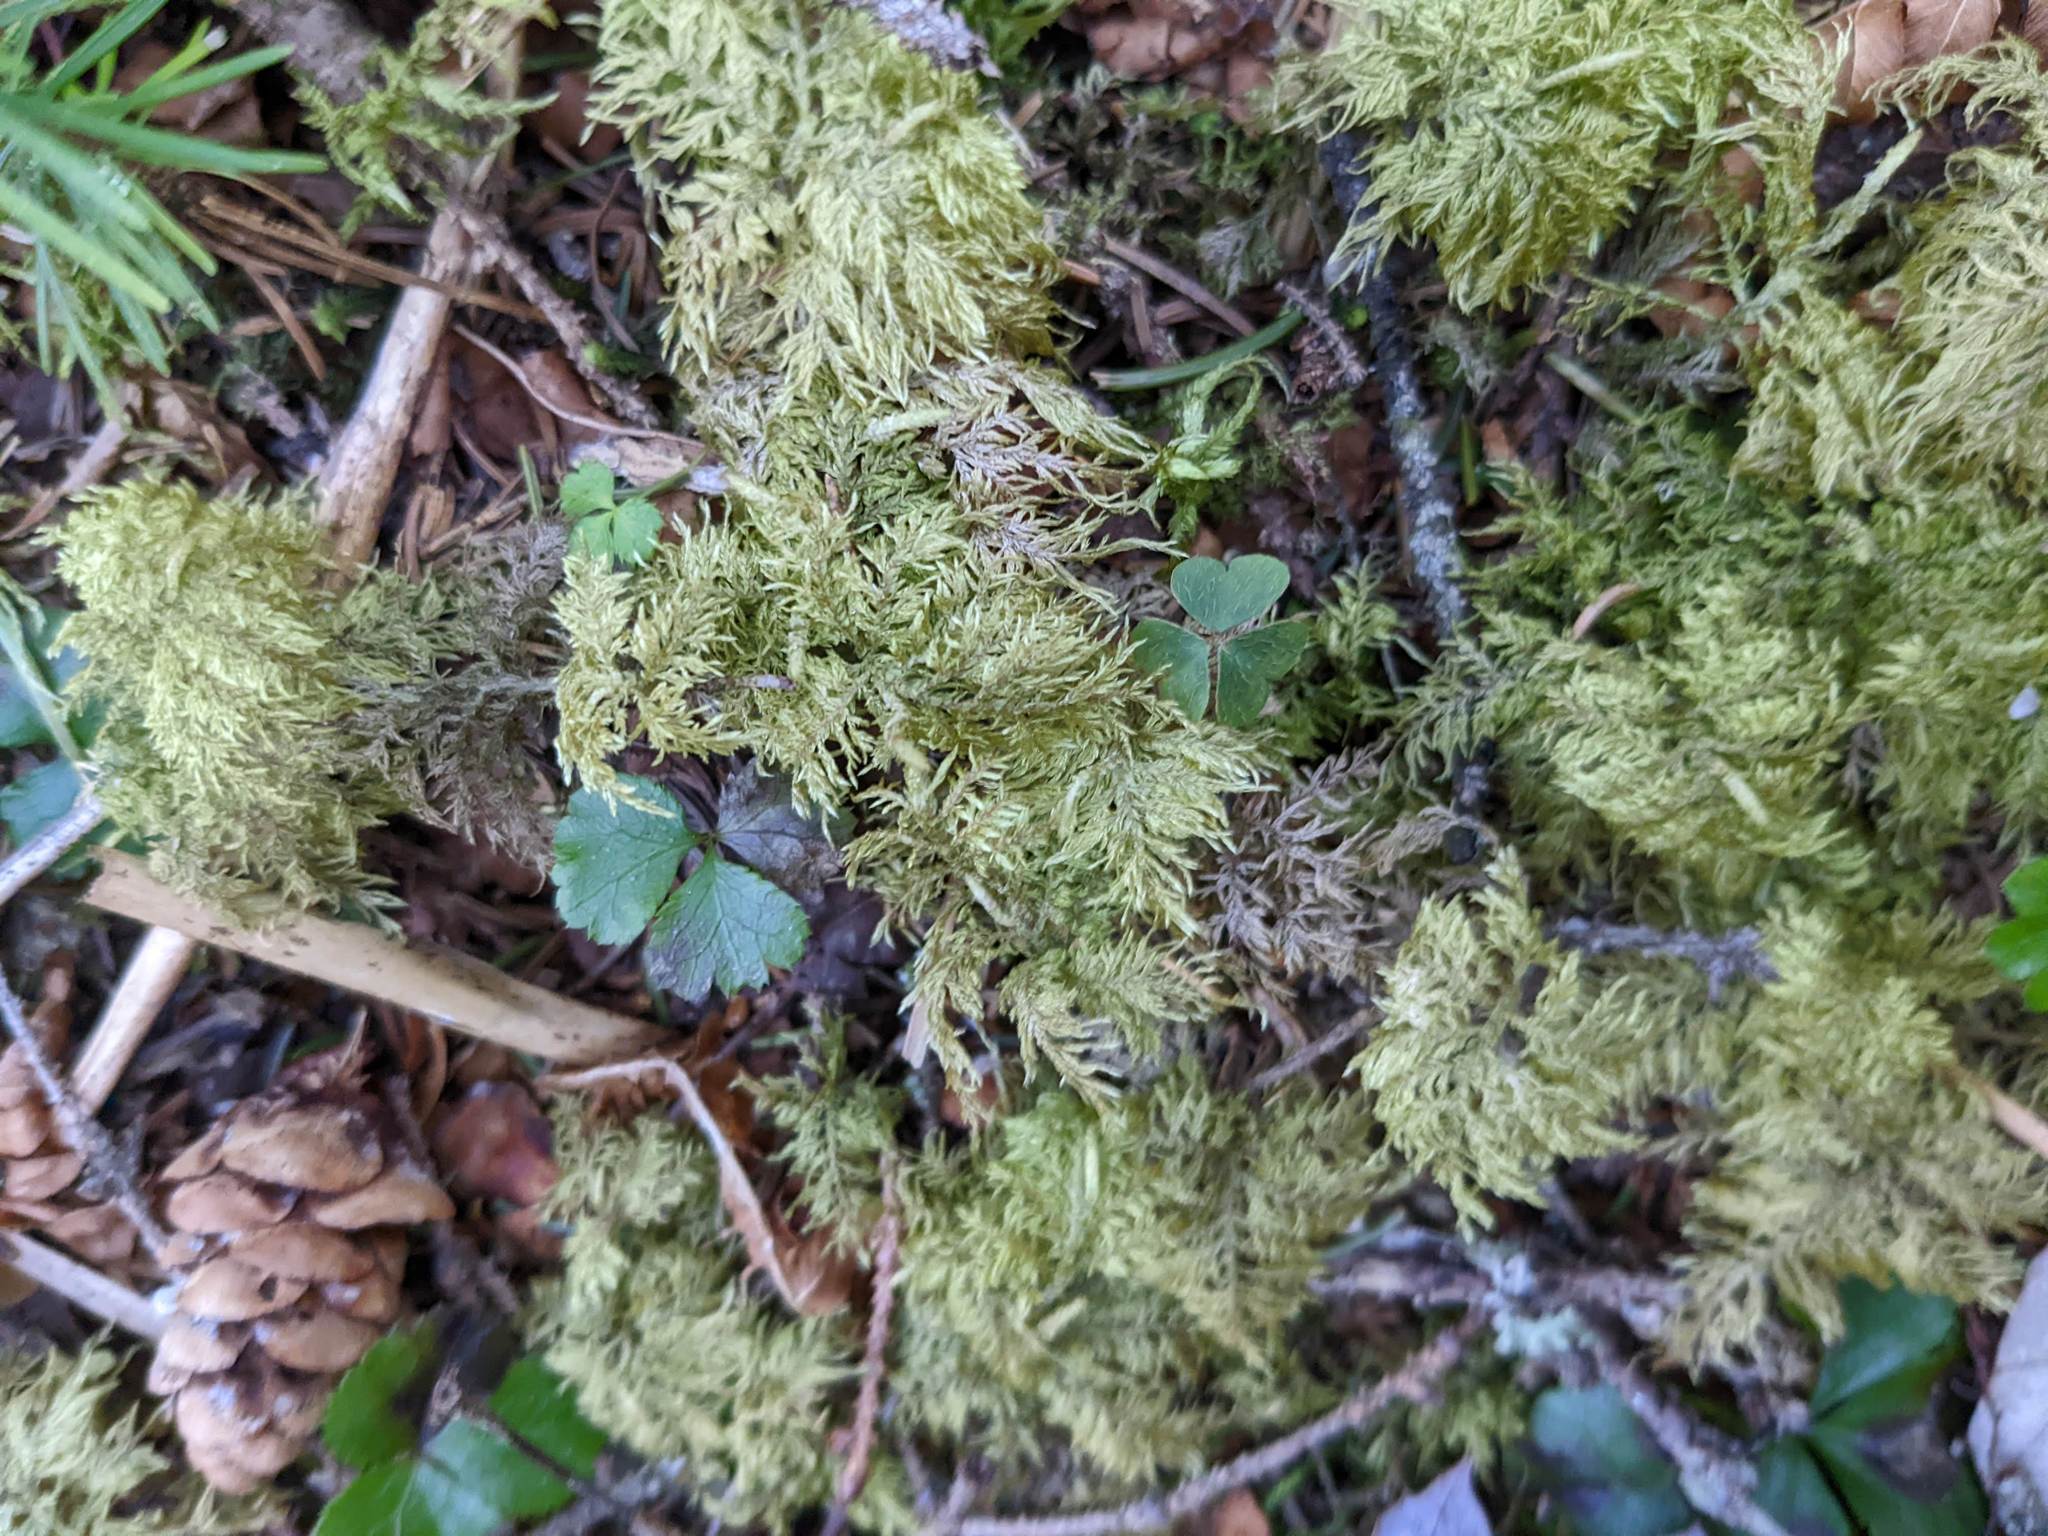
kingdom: Plantae
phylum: Bryophyta
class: Bryopsida
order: Hypnales
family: Hylocomiaceae
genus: Hylocomium
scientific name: Hylocomium splendens
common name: Stairstep moss
